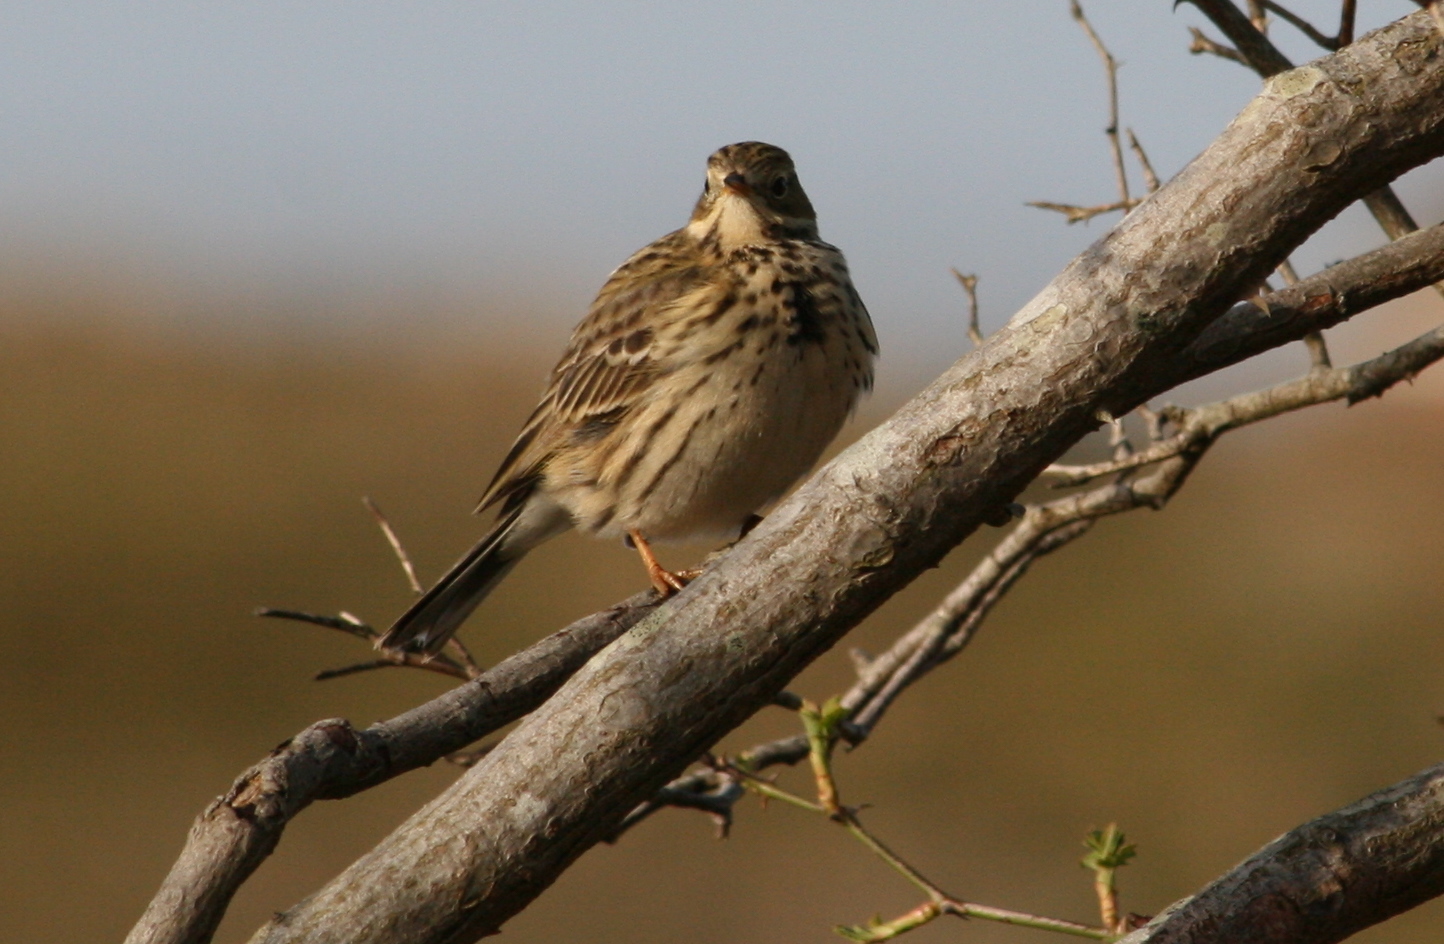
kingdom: Animalia
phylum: Chordata
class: Aves
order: Passeriformes
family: Motacillidae
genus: Anthus
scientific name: Anthus pratensis
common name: Meadow pipit
